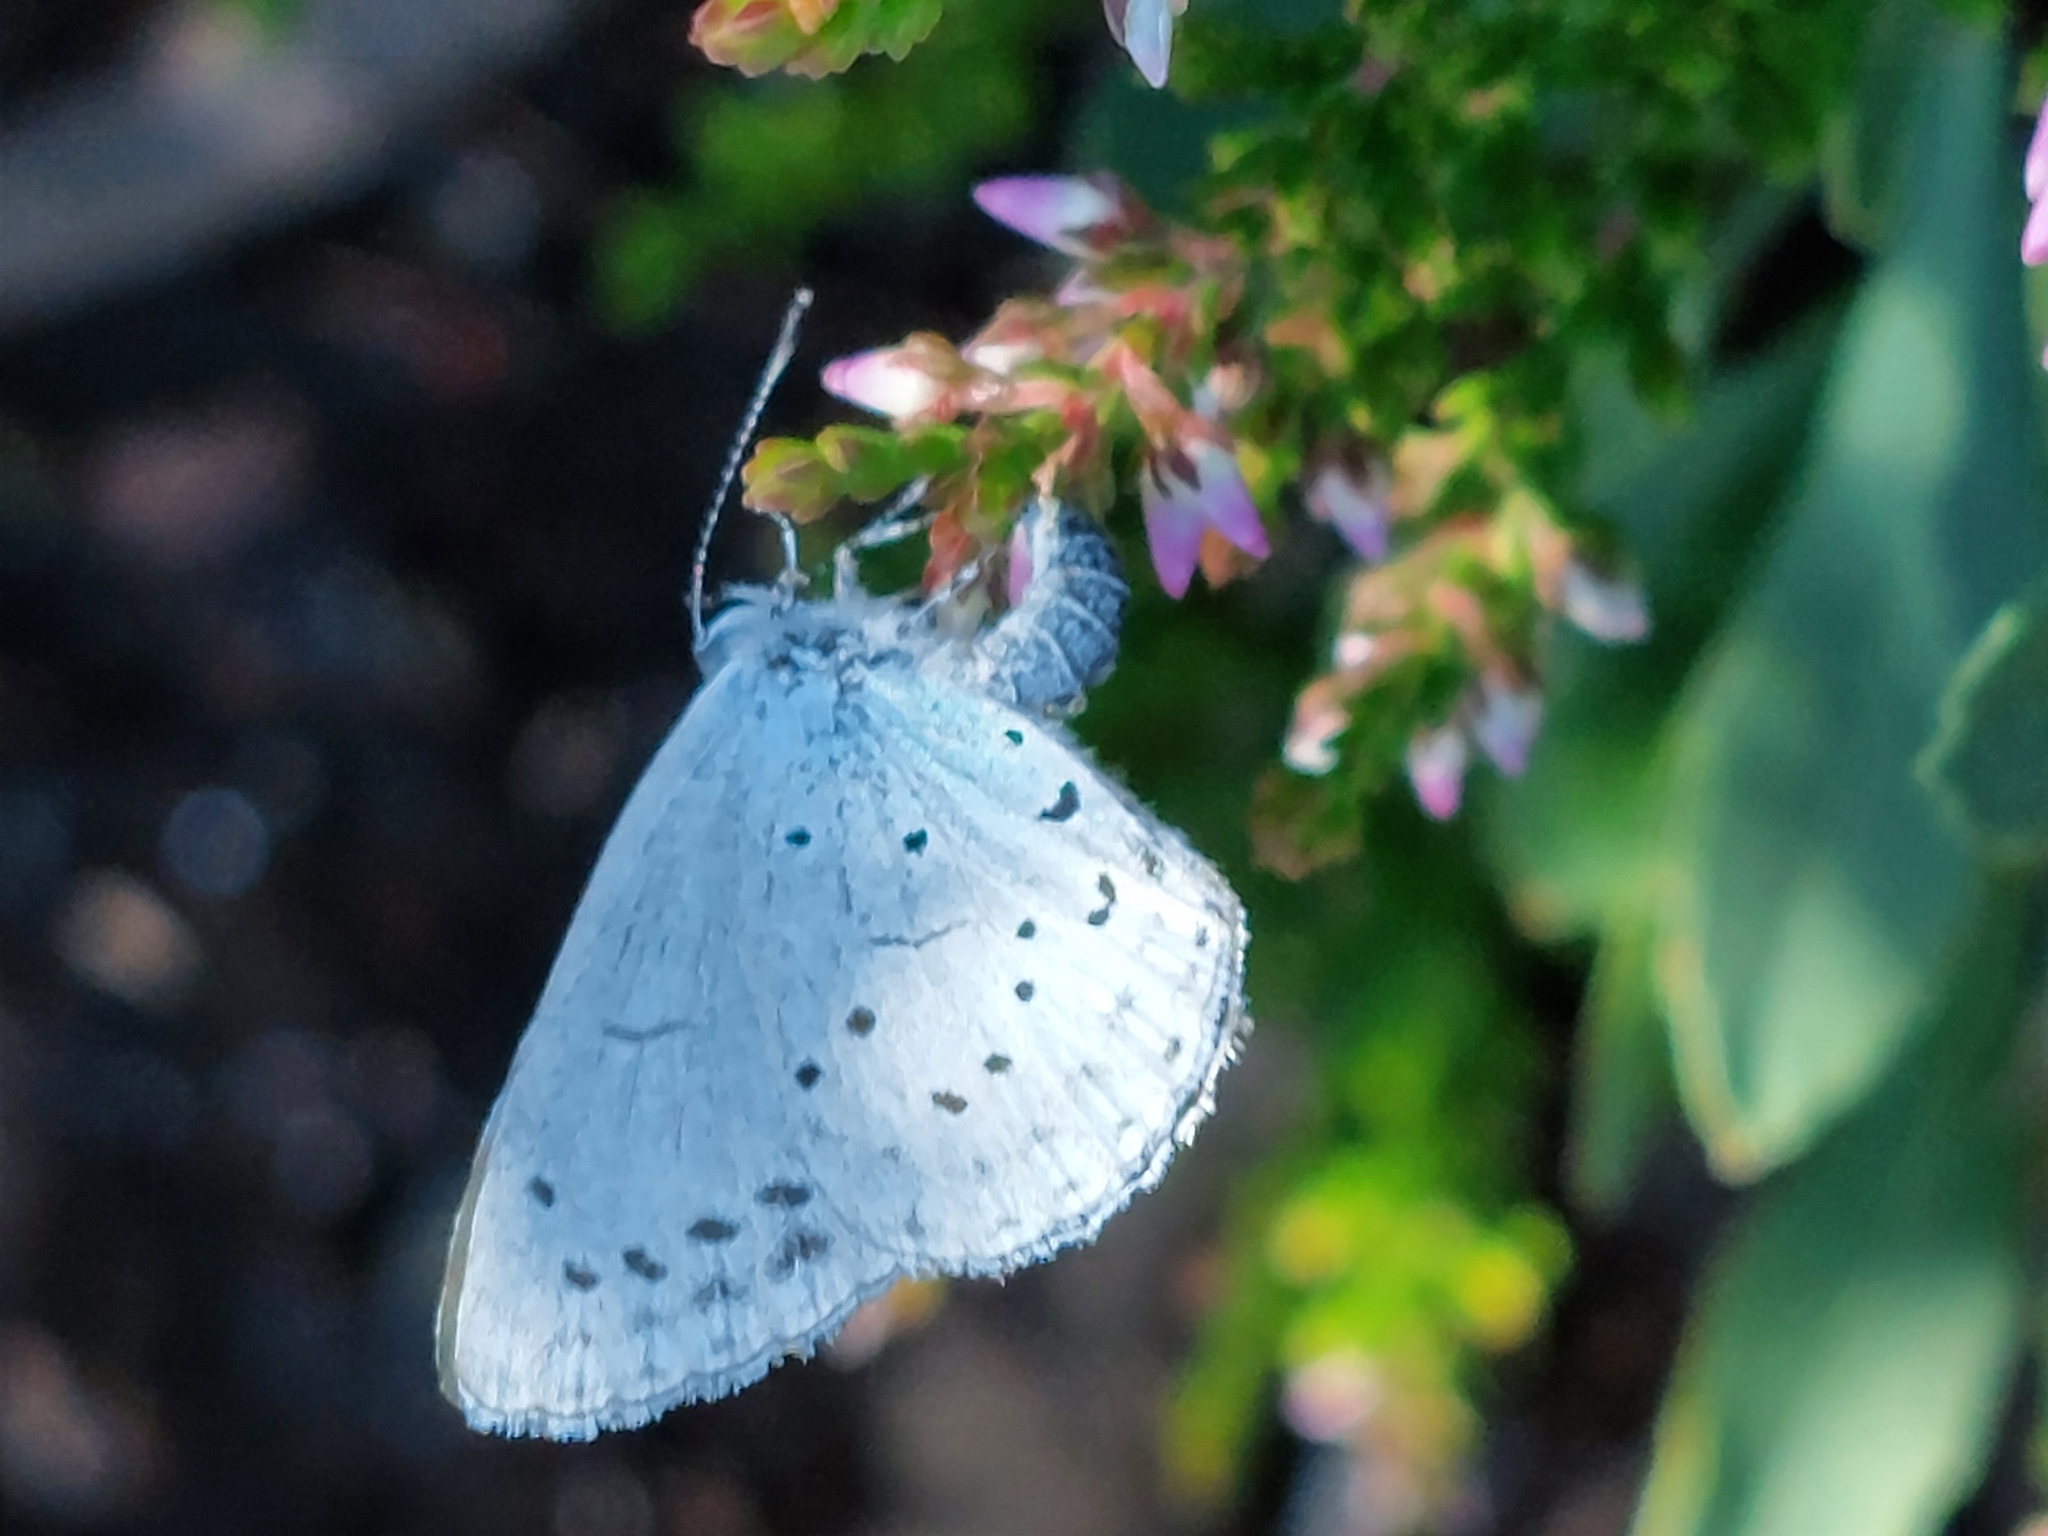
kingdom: Animalia
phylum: Arthropoda
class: Insecta
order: Lepidoptera
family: Lycaenidae
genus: Celastrina
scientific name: Celastrina argiolus
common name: Holly blue
